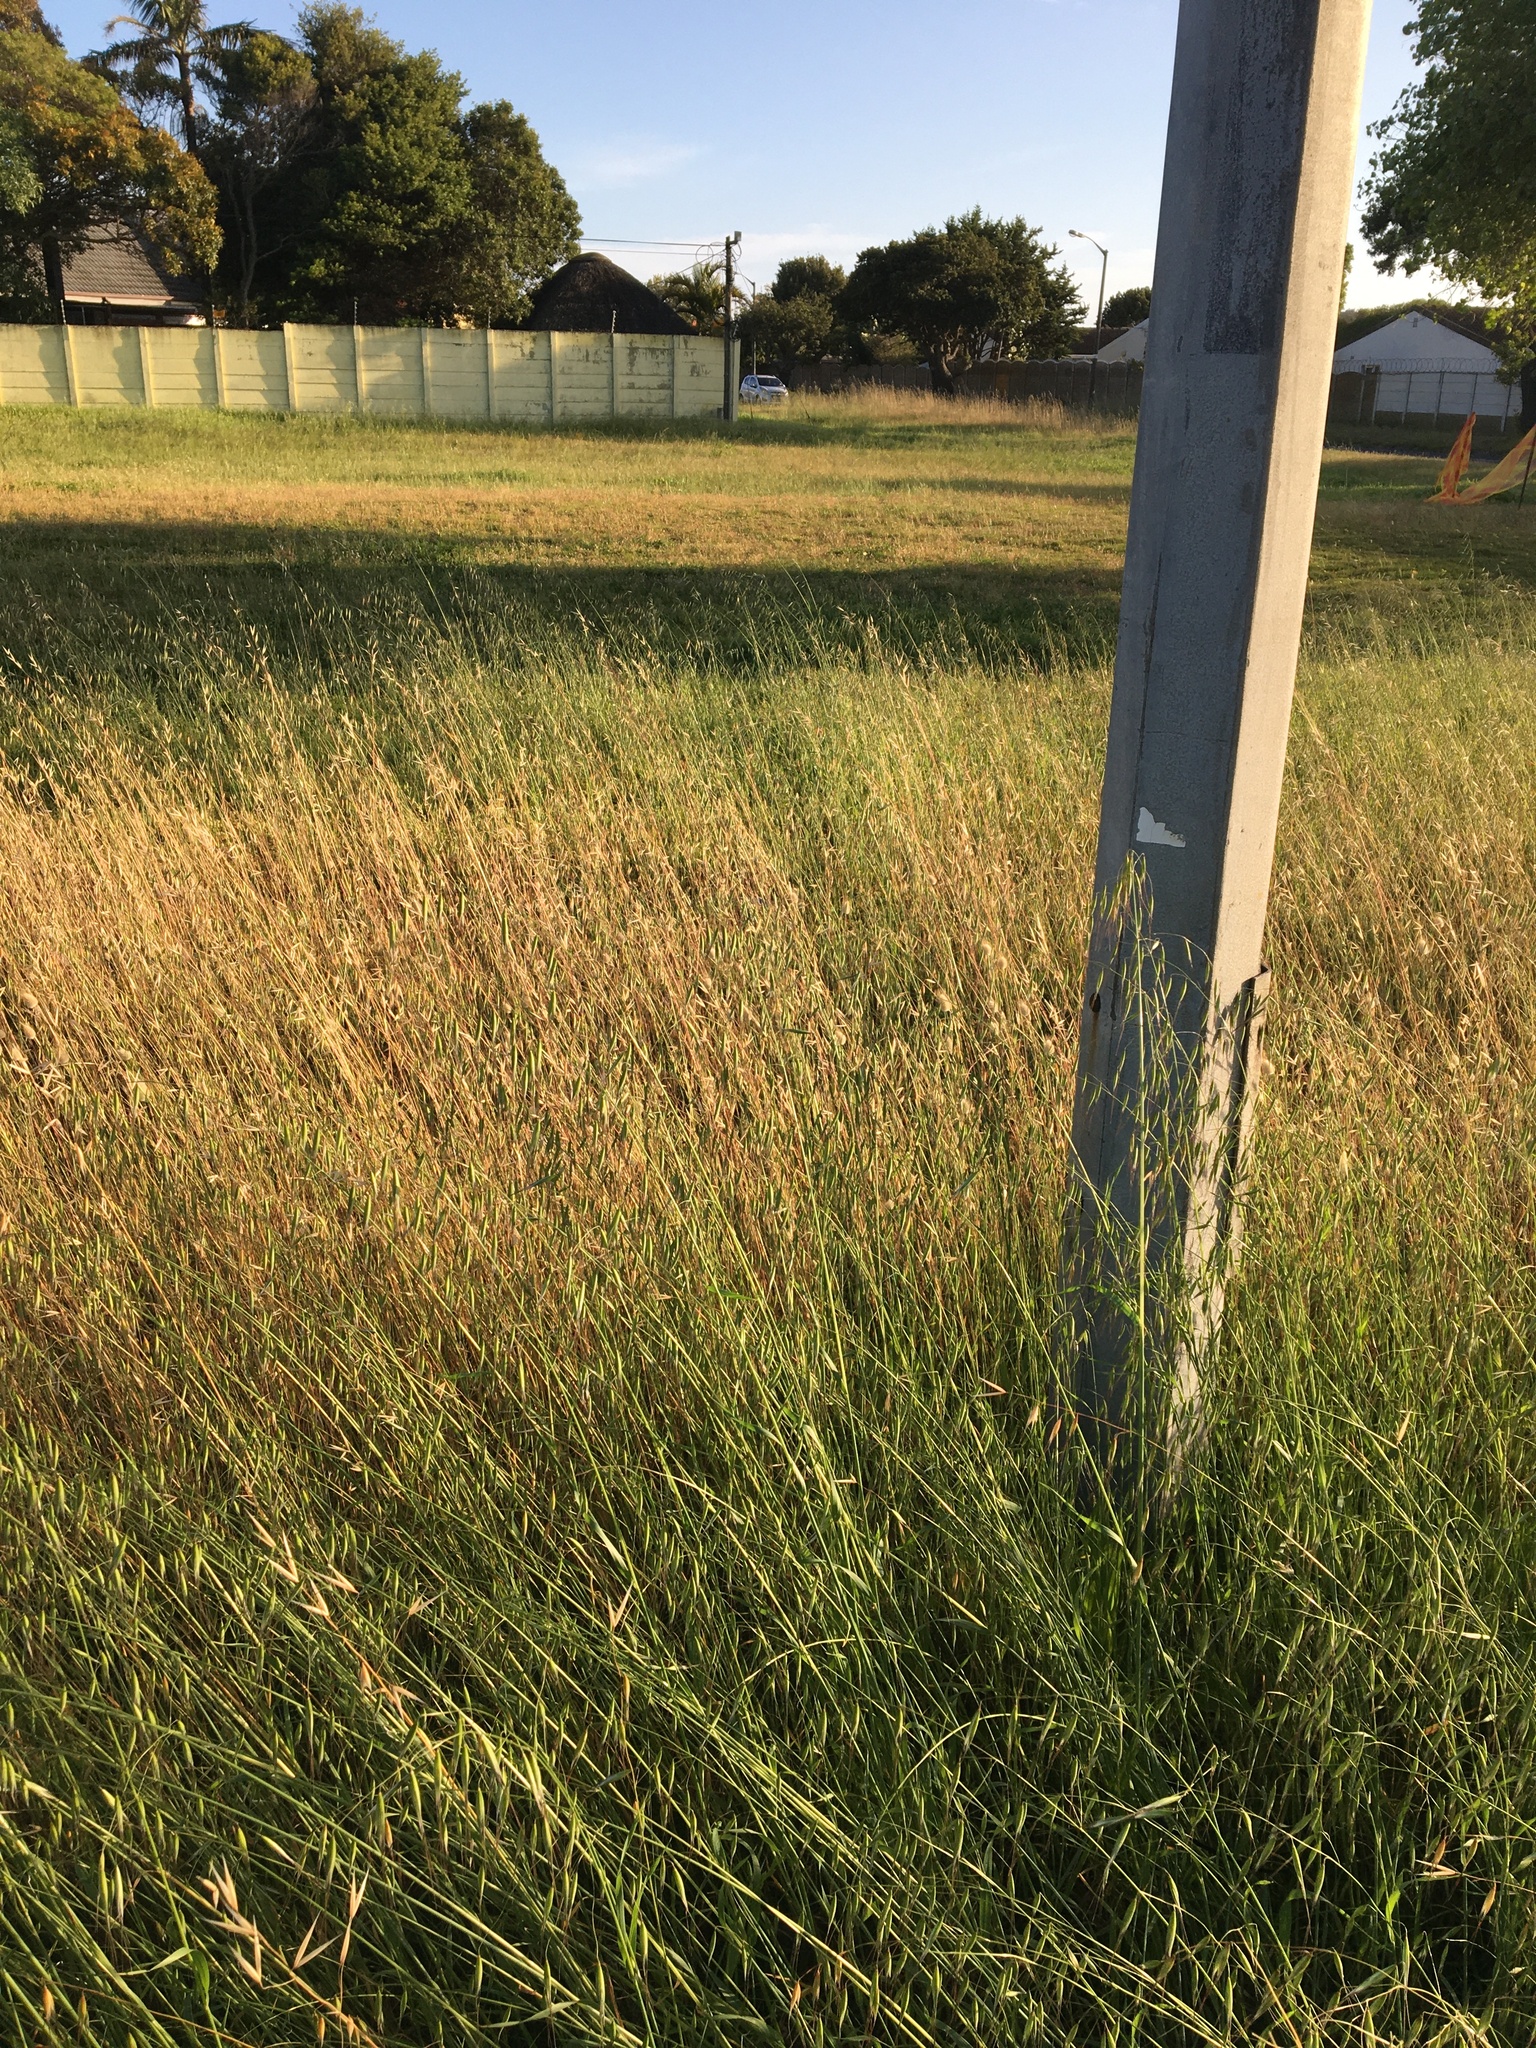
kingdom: Plantae
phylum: Tracheophyta
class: Liliopsida
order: Poales
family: Poaceae
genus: Avena
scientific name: Avena fatua
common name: Wild oat
